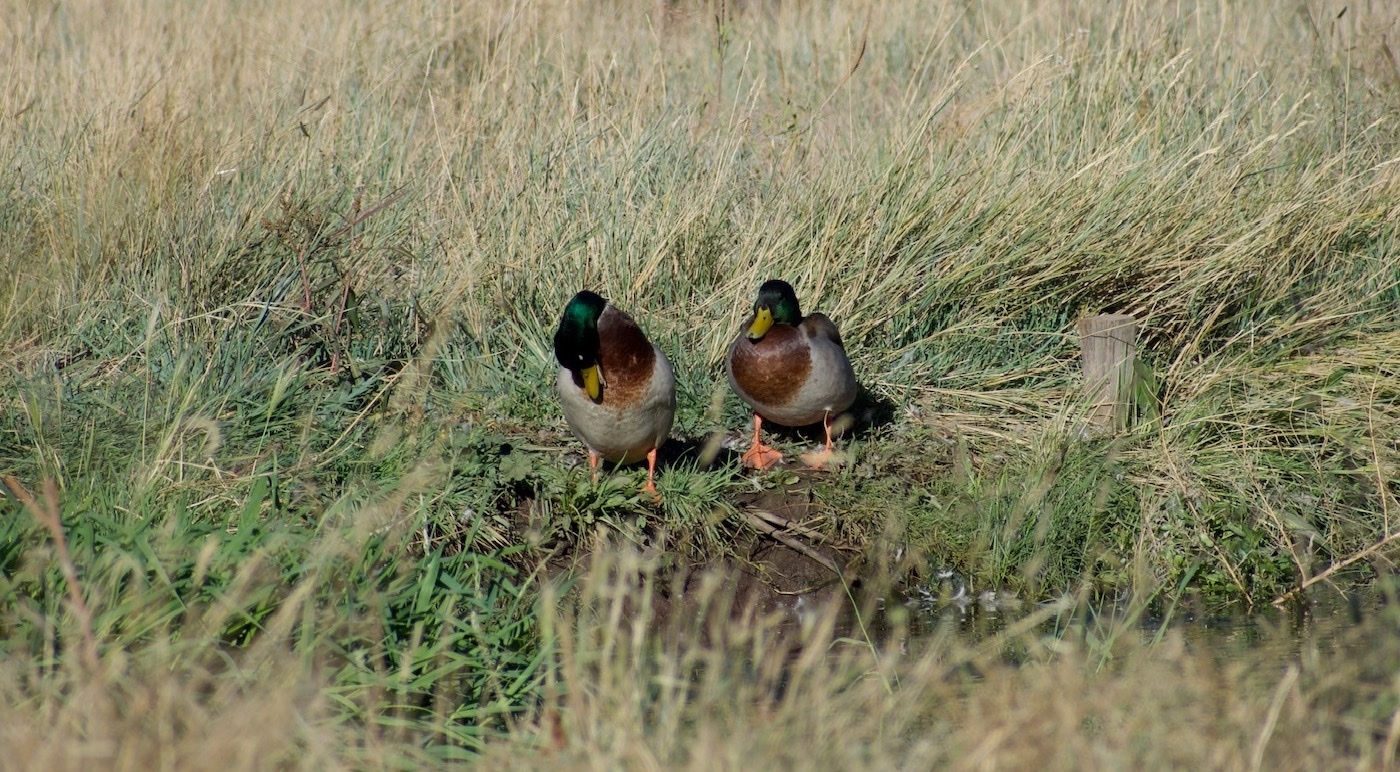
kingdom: Animalia
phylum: Chordata
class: Aves
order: Anseriformes
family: Anatidae
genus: Anas
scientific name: Anas platyrhynchos
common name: Mallard
